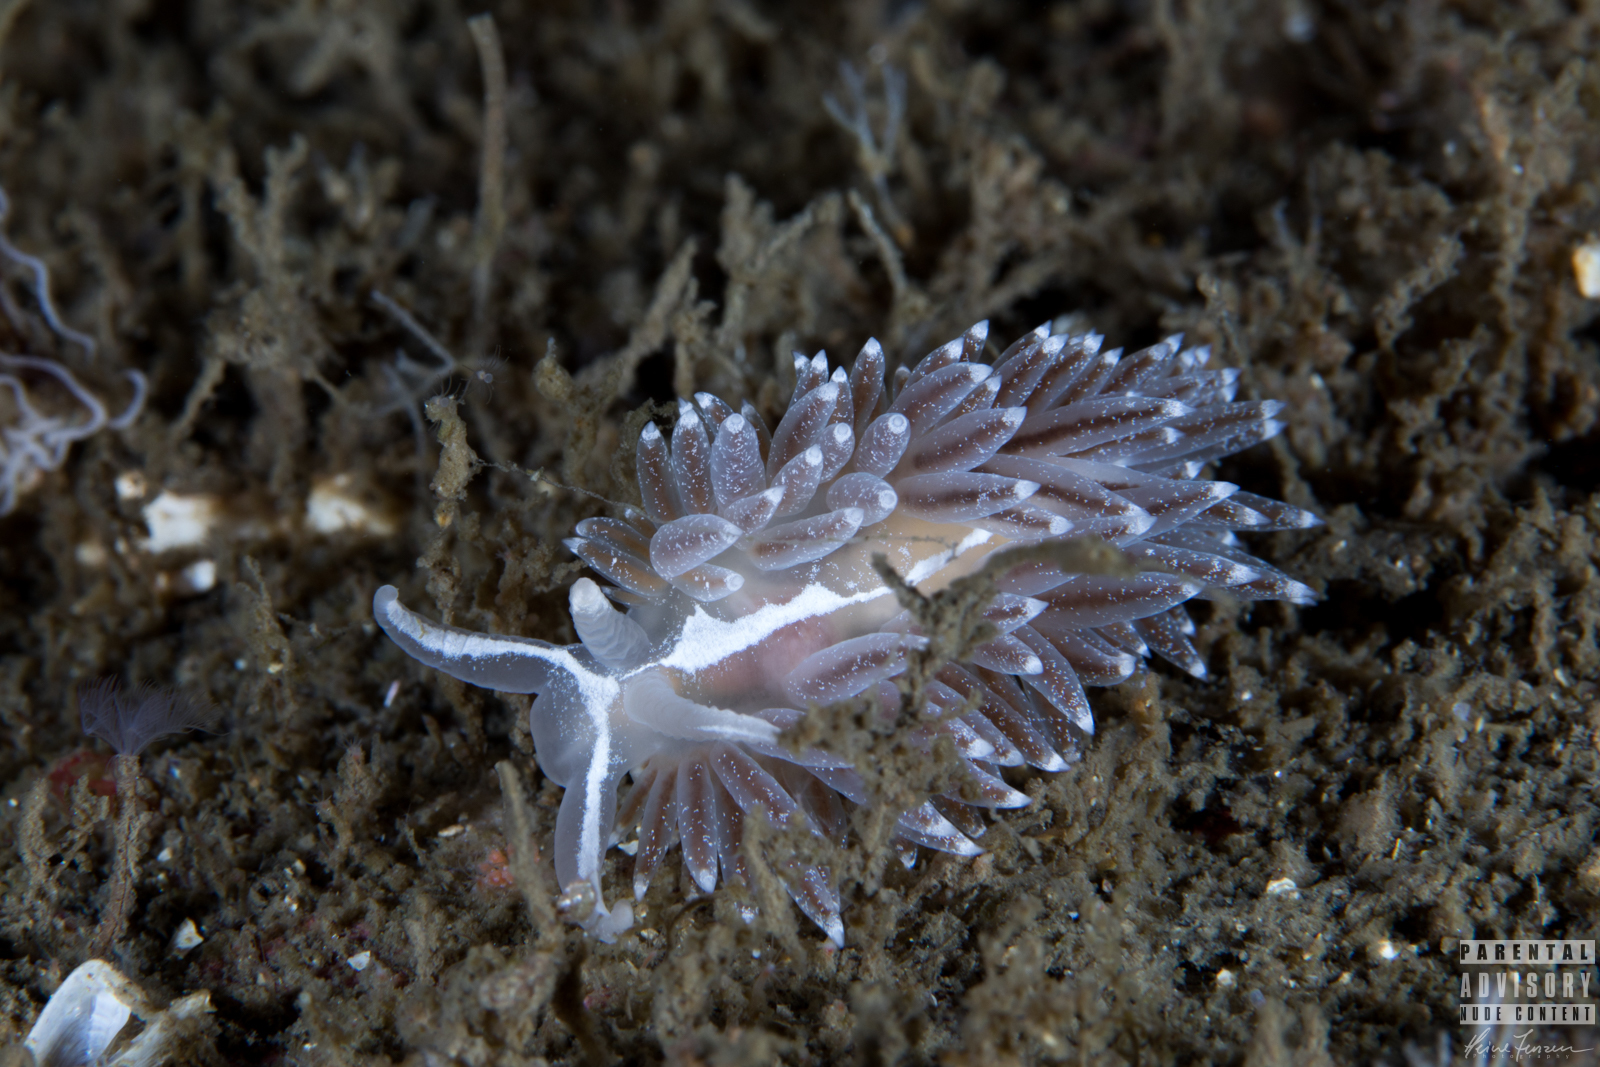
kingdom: Animalia
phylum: Mollusca
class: Gastropoda
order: Nudibranchia
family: Coryphellidae
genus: Coryphella
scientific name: Coryphella monicae
